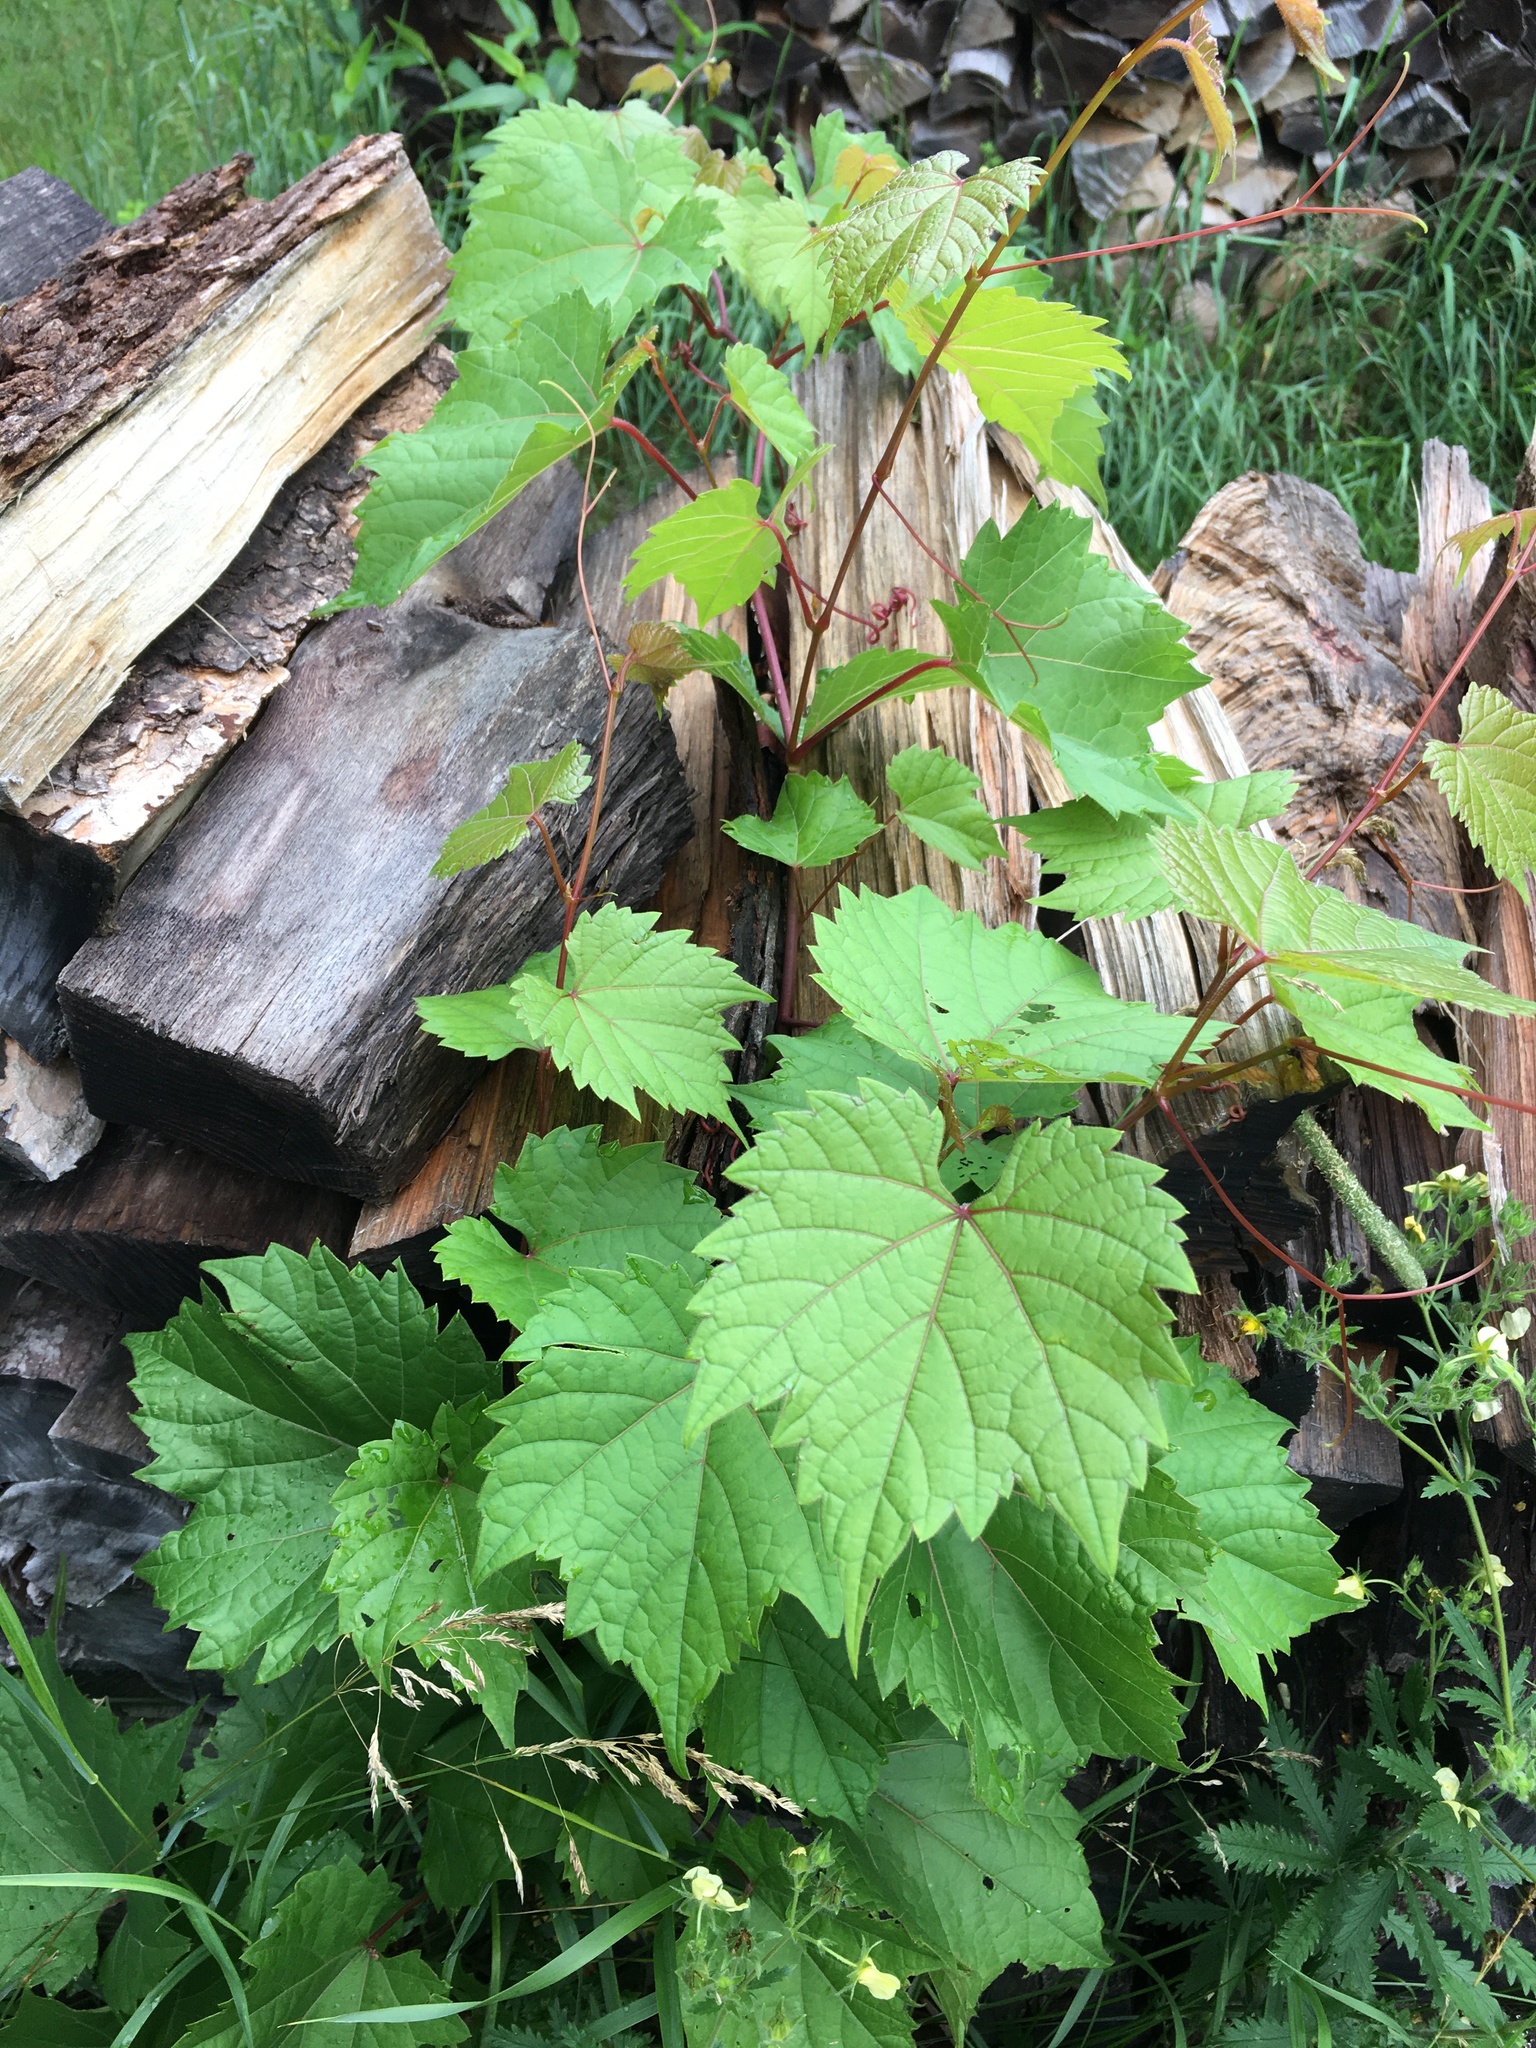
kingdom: Plantae
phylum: Tracheophyta
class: Magnoliopsida
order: Vitales
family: Vitaceae
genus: Vitis
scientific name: Vitis riparia
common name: Frost grape
